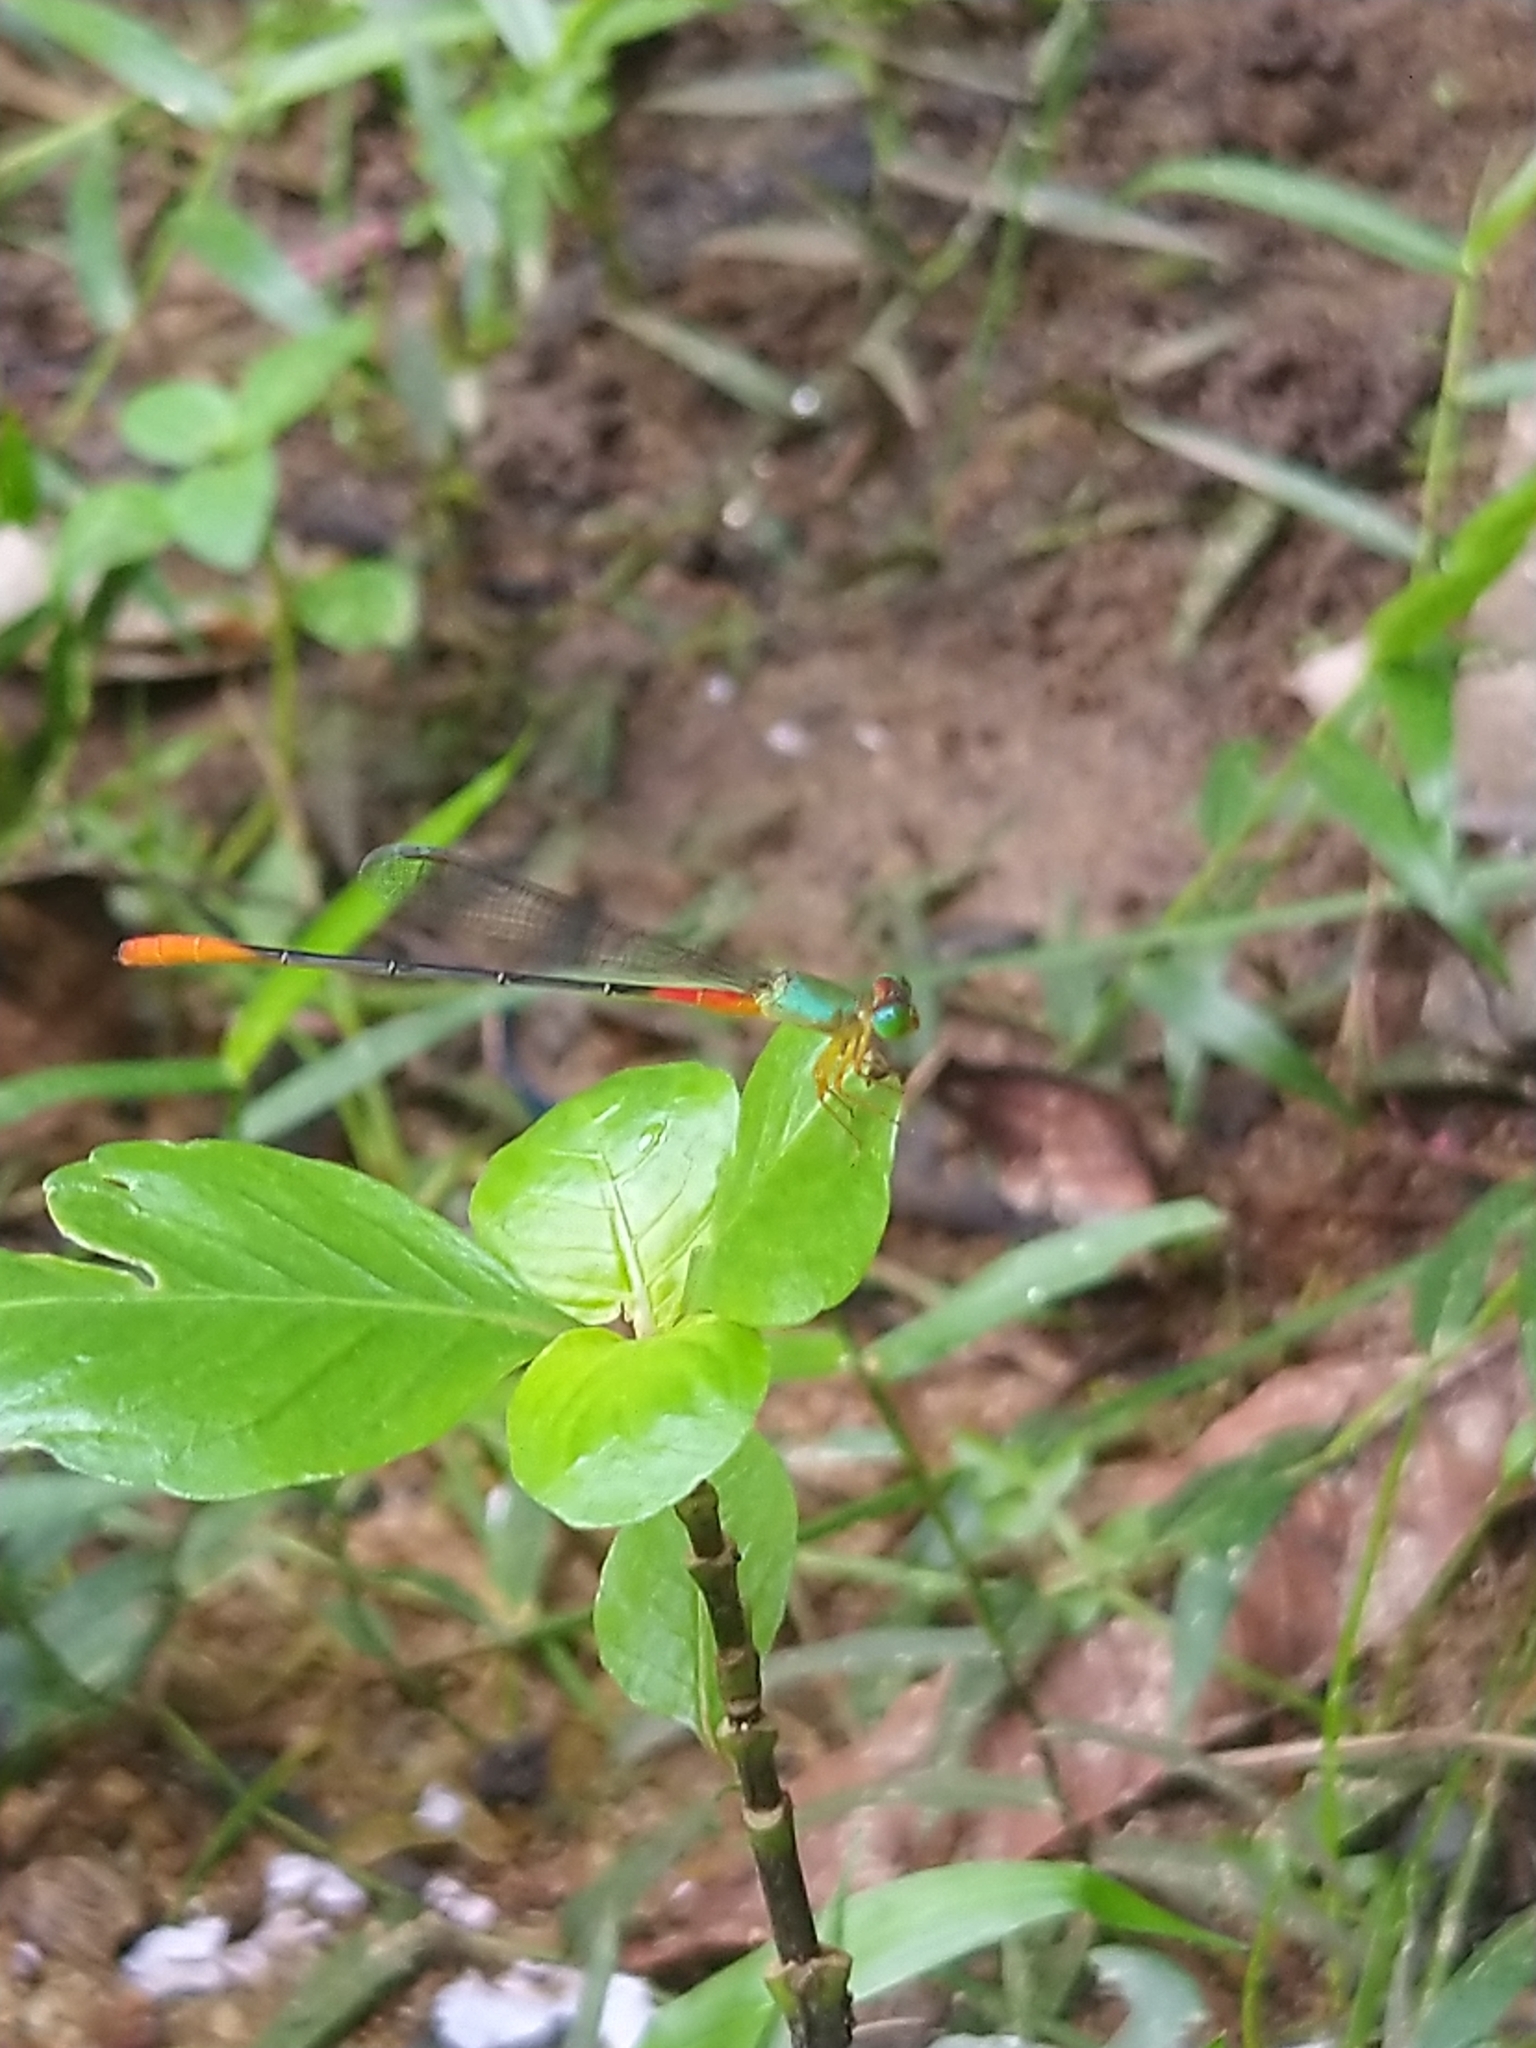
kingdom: Animalia
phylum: Arthropoda
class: Insecta
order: Odonata
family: Coenagrionidae
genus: Ceriagrion
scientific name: Ceriagrion cerinorubellum
